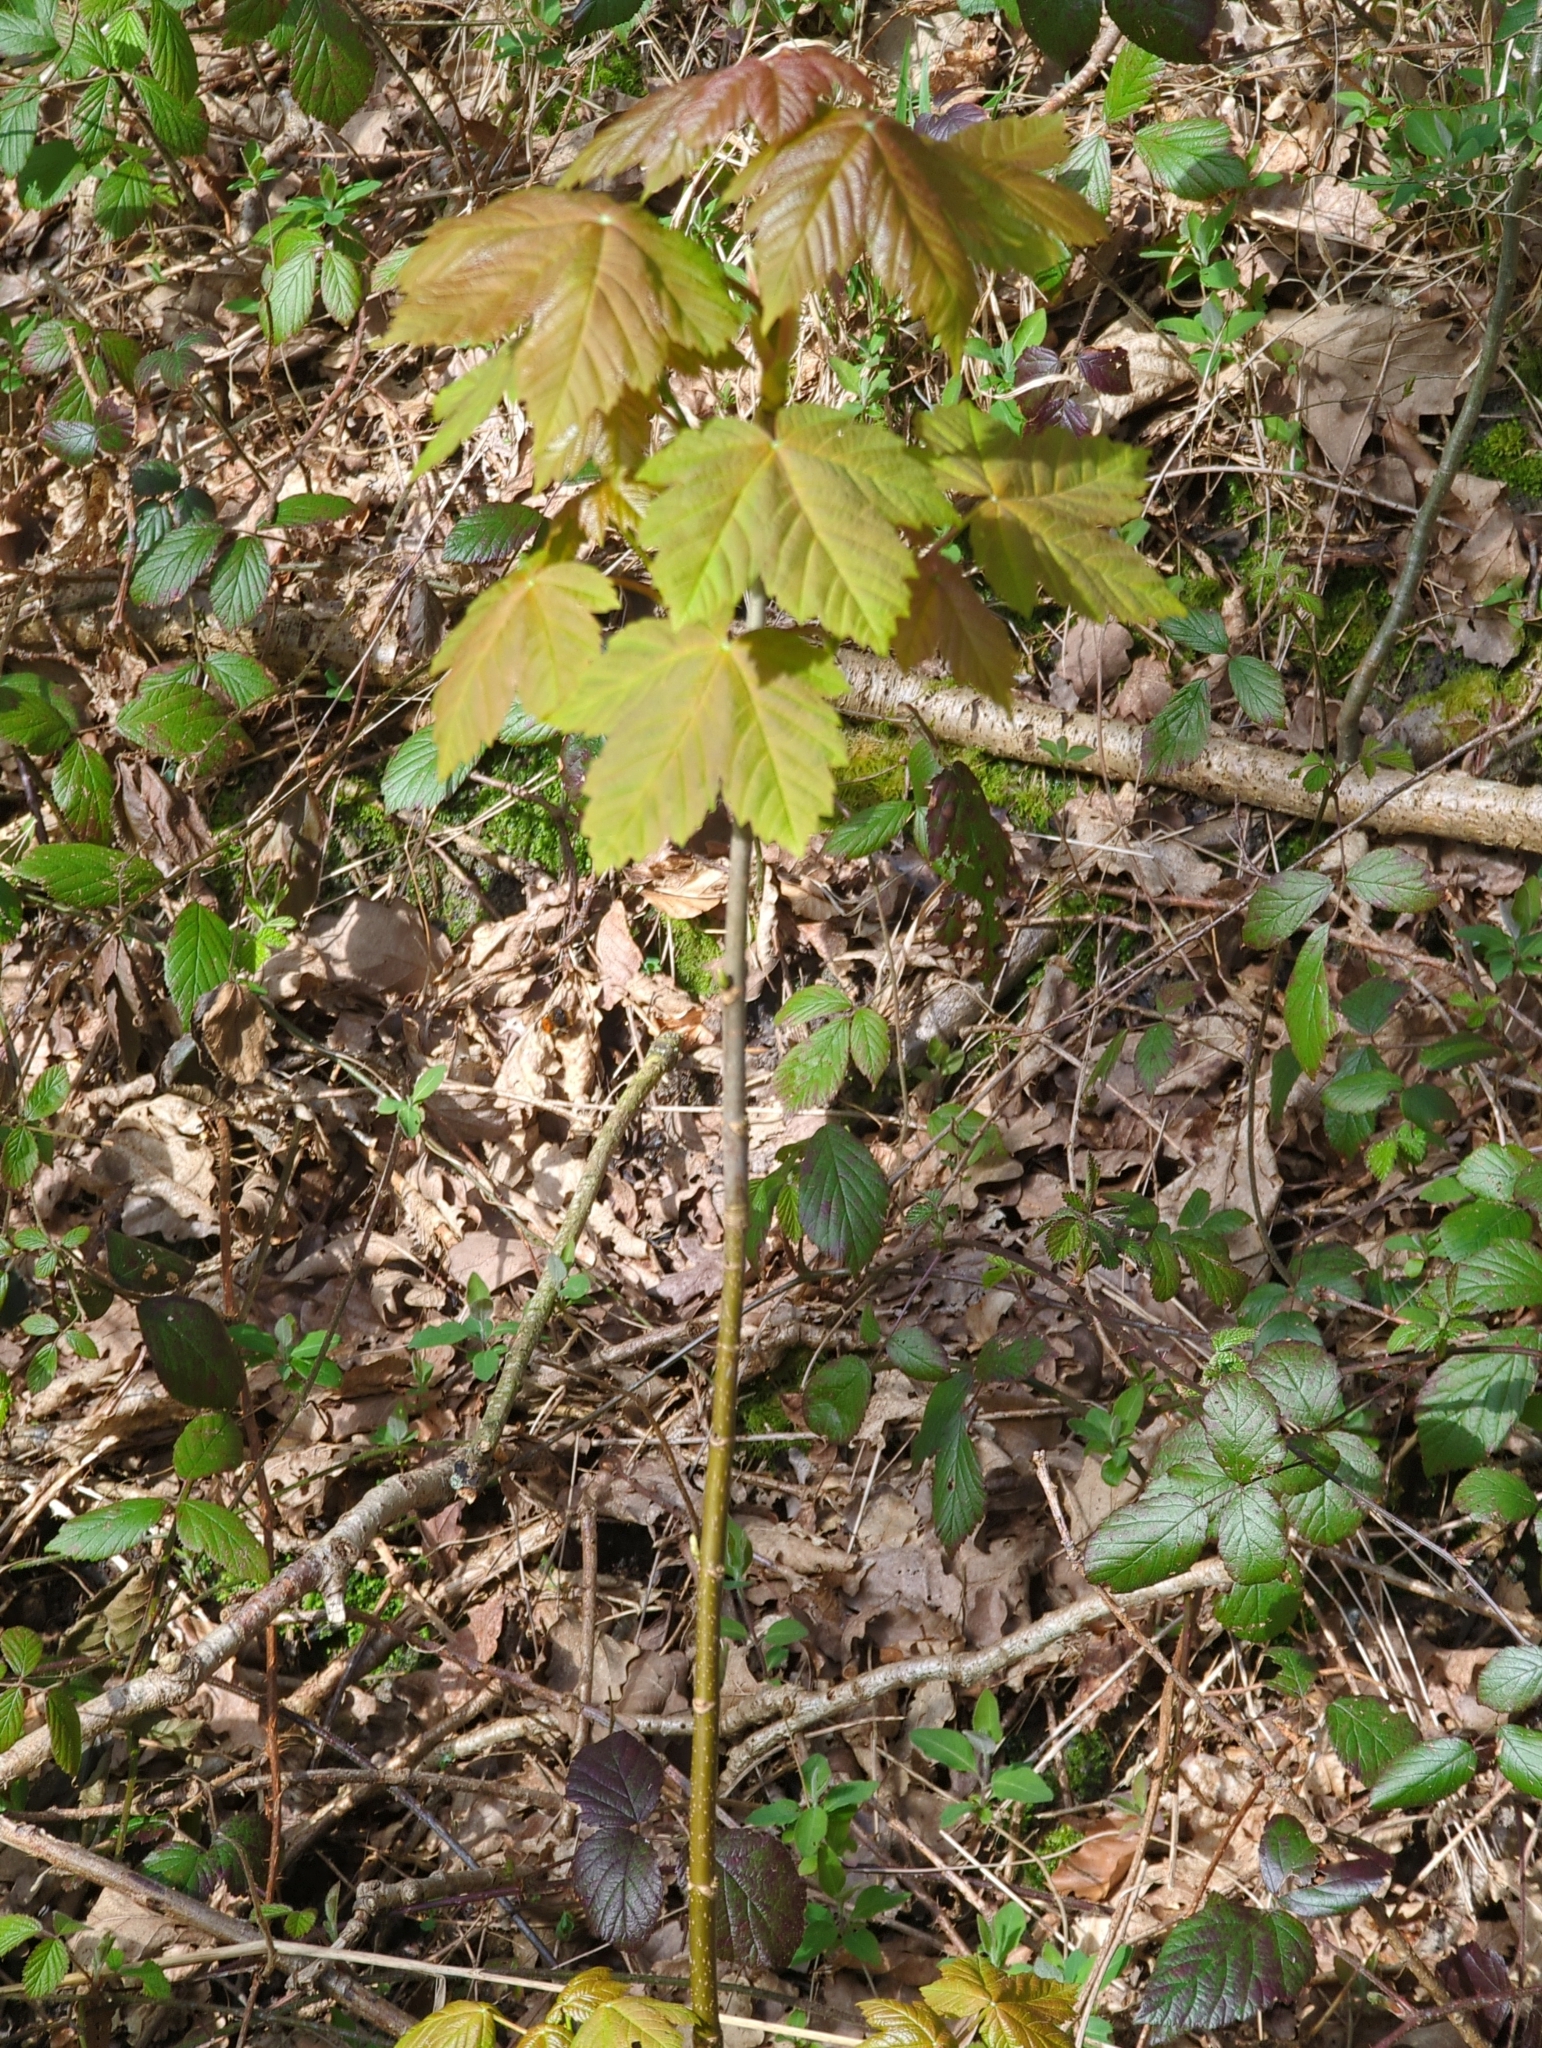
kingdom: Plantae
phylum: Tracheophyta
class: Magnoliopsida
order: Sapindales
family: Sapindaceae
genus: Acer
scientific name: Acer pseudoplatanus
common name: Sycamore
